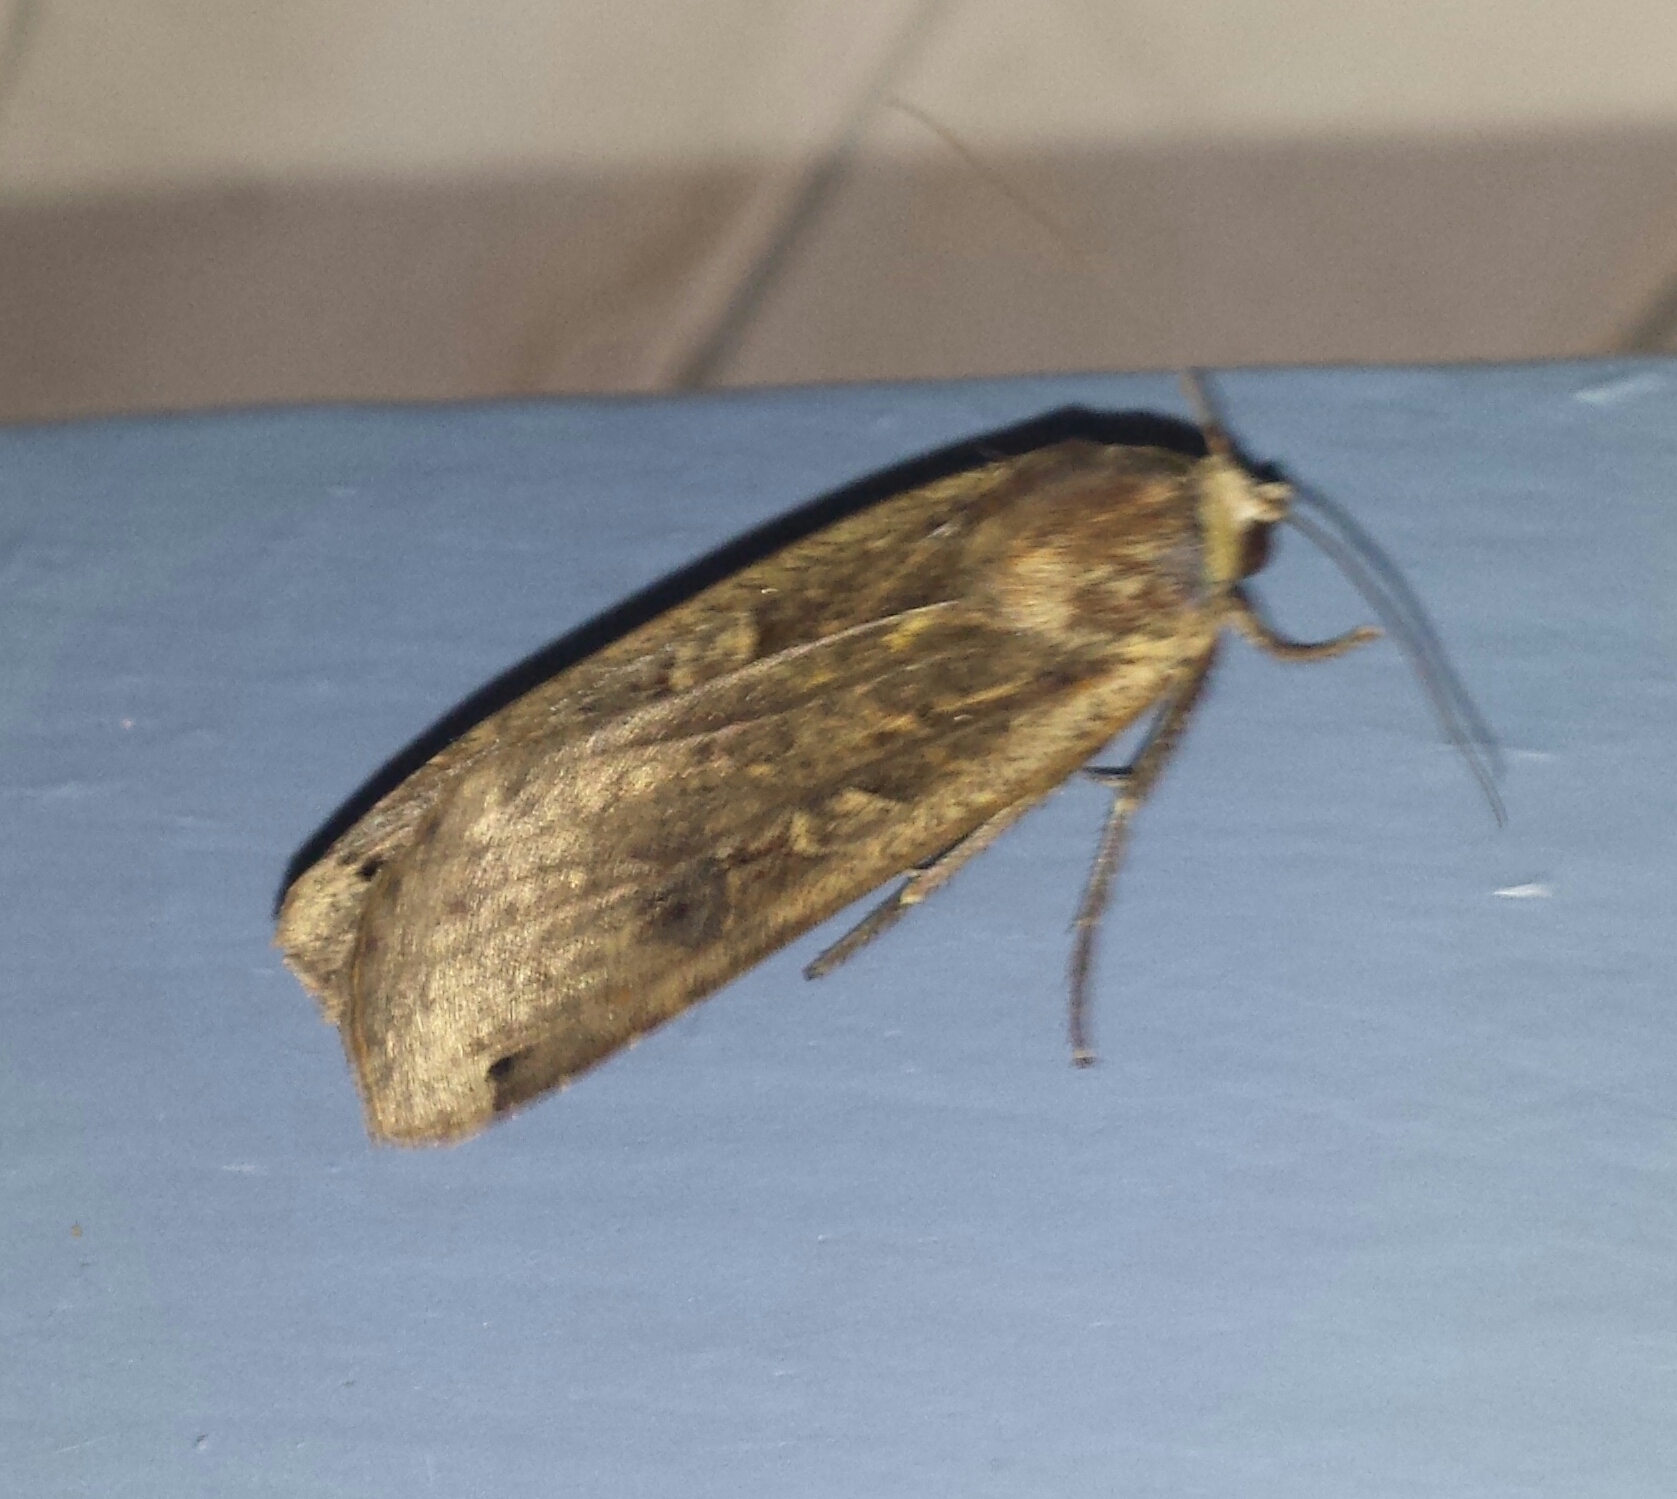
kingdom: Animalia
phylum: Arthropoda
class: Insecta
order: Lepidoptera
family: Noctuidae
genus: Noctua
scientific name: Noctua pronuba
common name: Large yellow underwing
